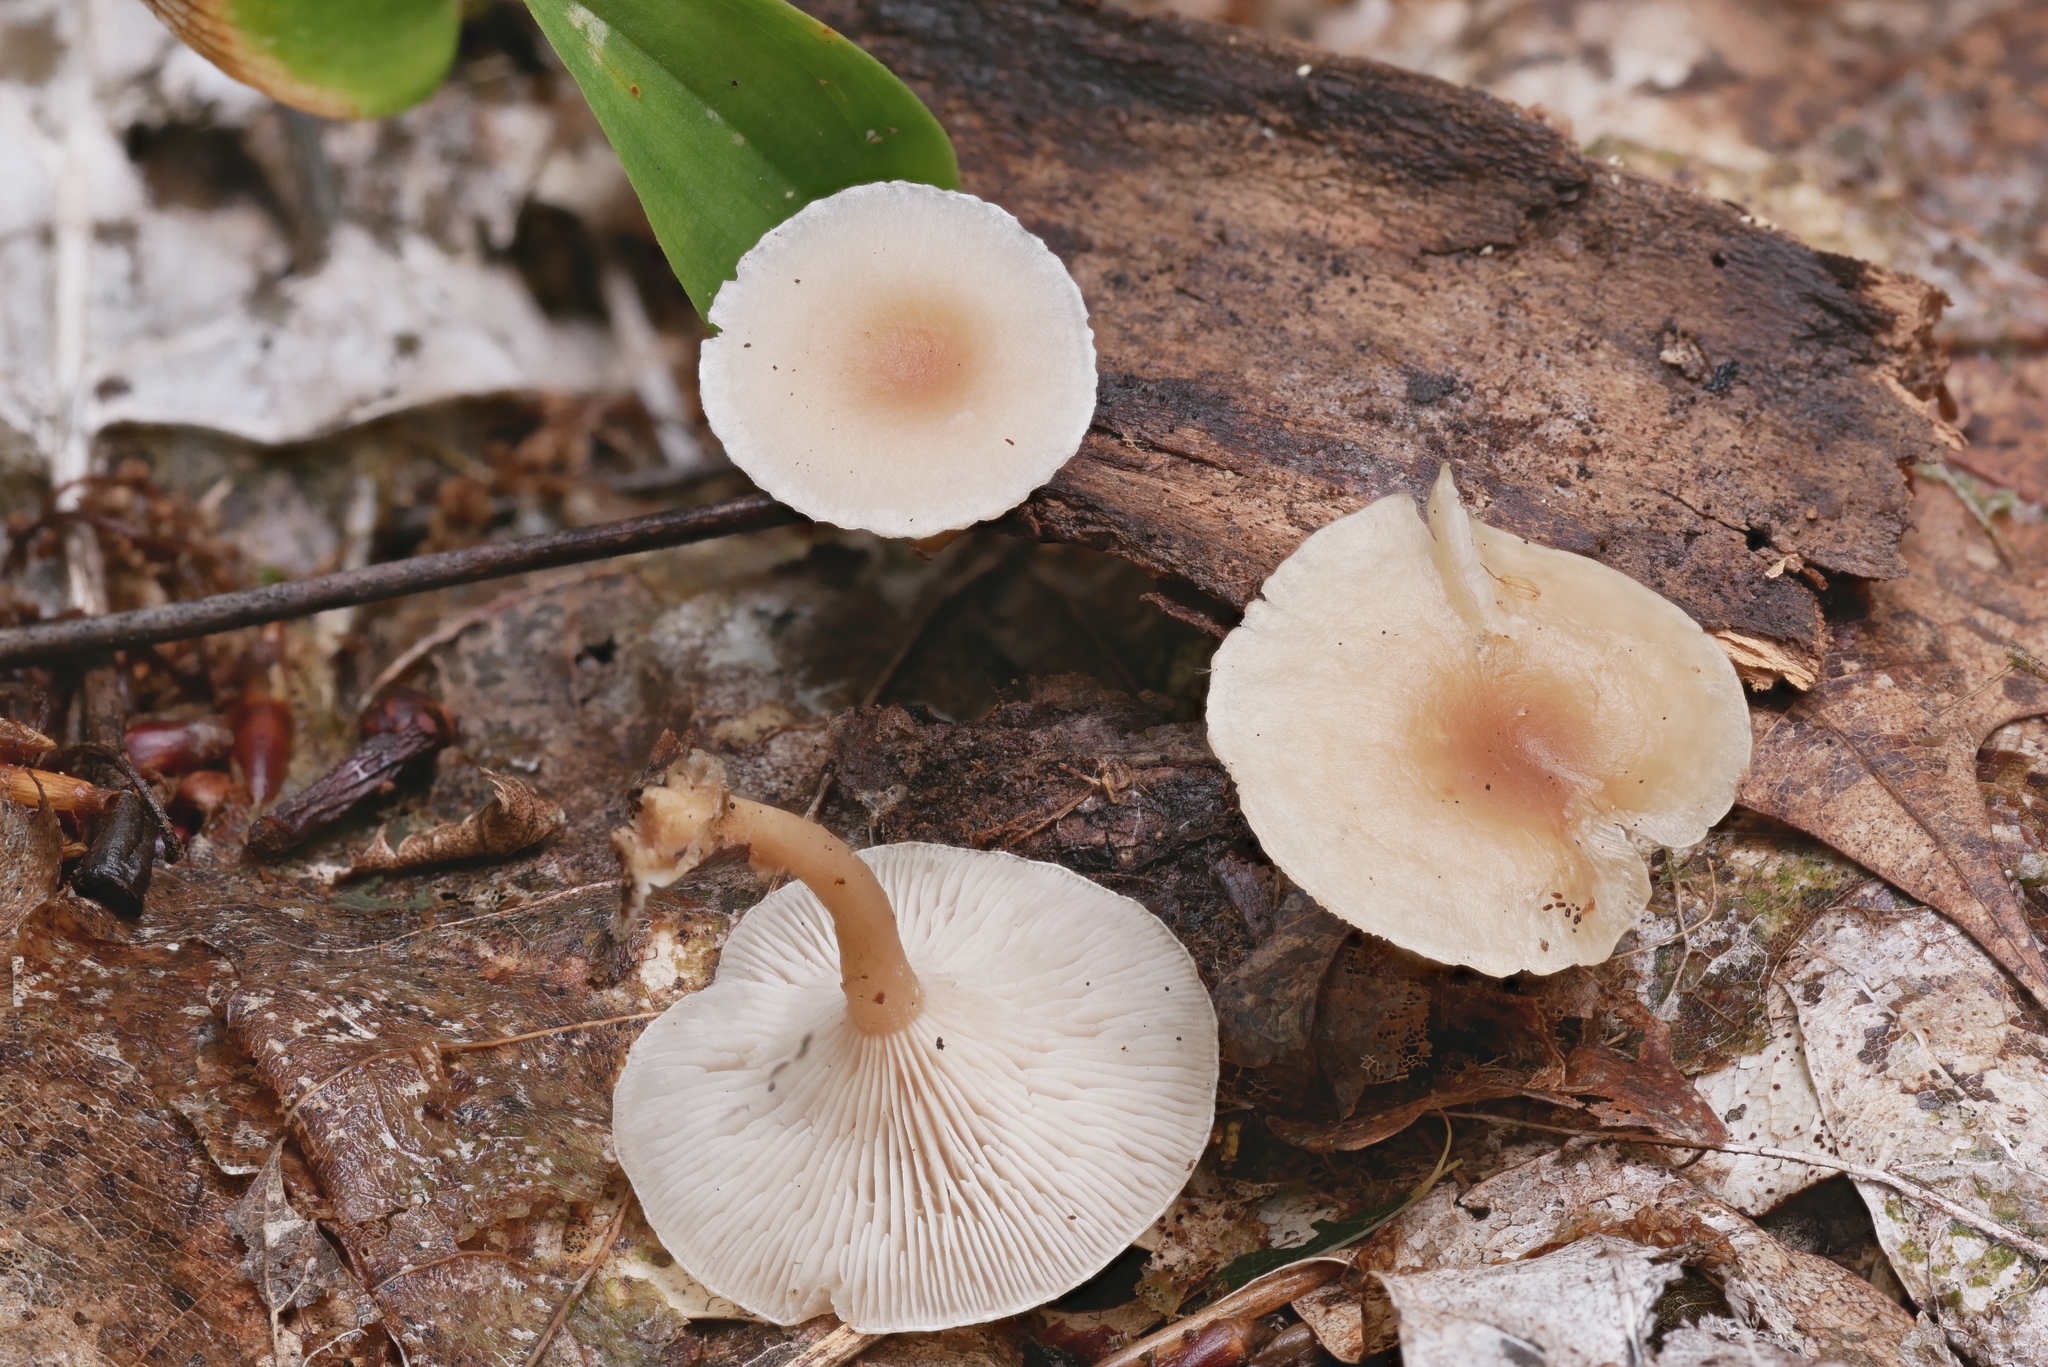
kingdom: Fungi
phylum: Basidiomycota
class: Agaricomycetes
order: Agaricales
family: Tricholomataceae
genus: Clitocybe
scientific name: Clitocybe americana
